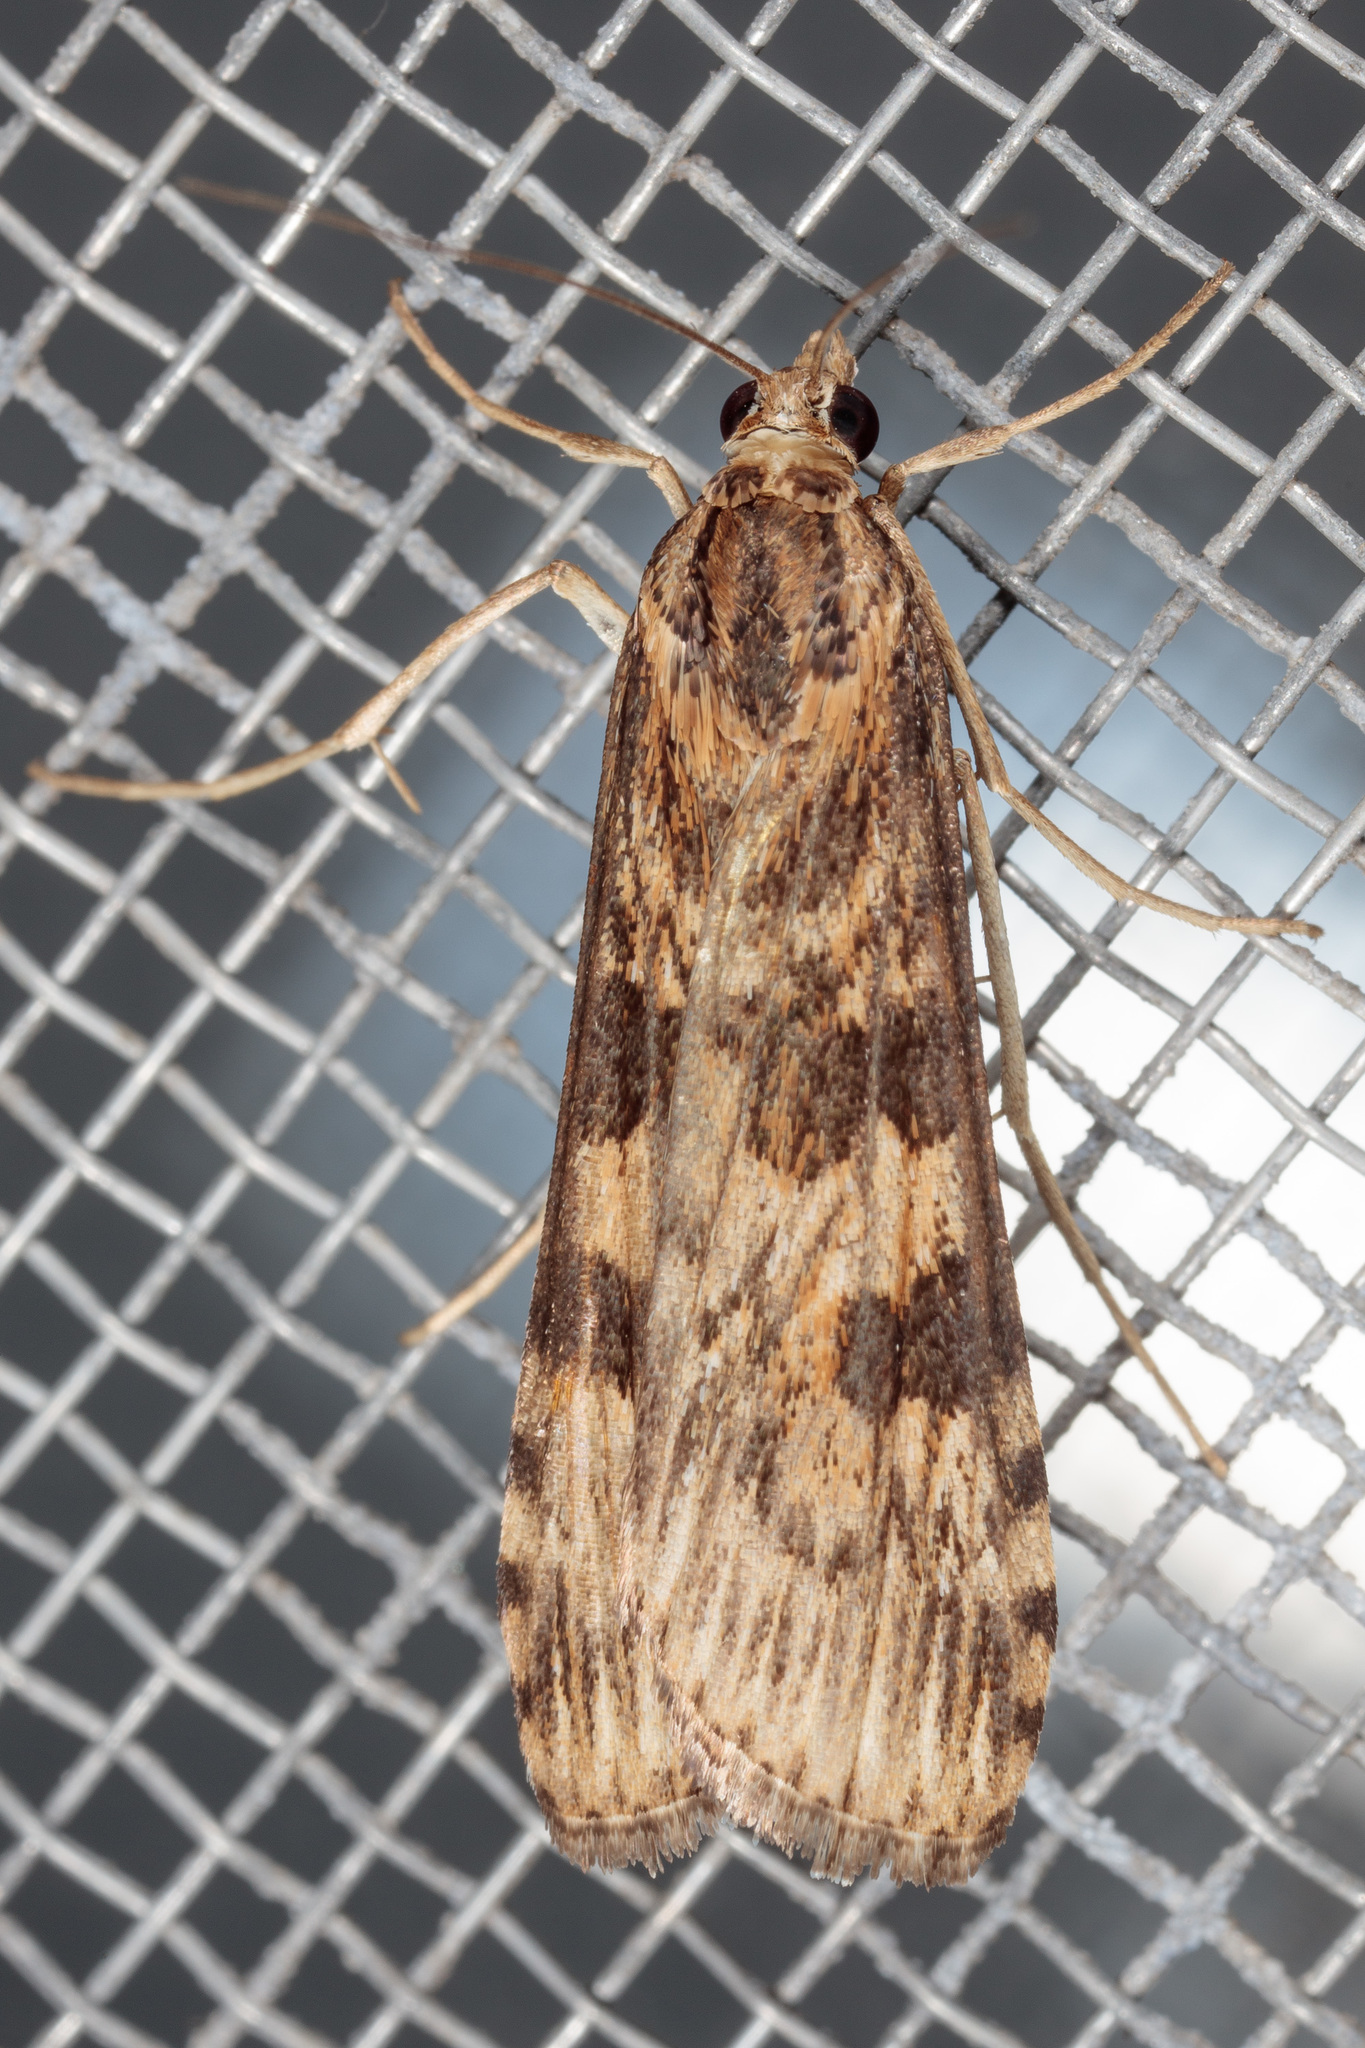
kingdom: Animalia
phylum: Arthropoda
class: Insecta
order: Lepidoptera
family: Crambidae
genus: Nomophila
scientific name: Nomophila nearctica
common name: American rush veneer
